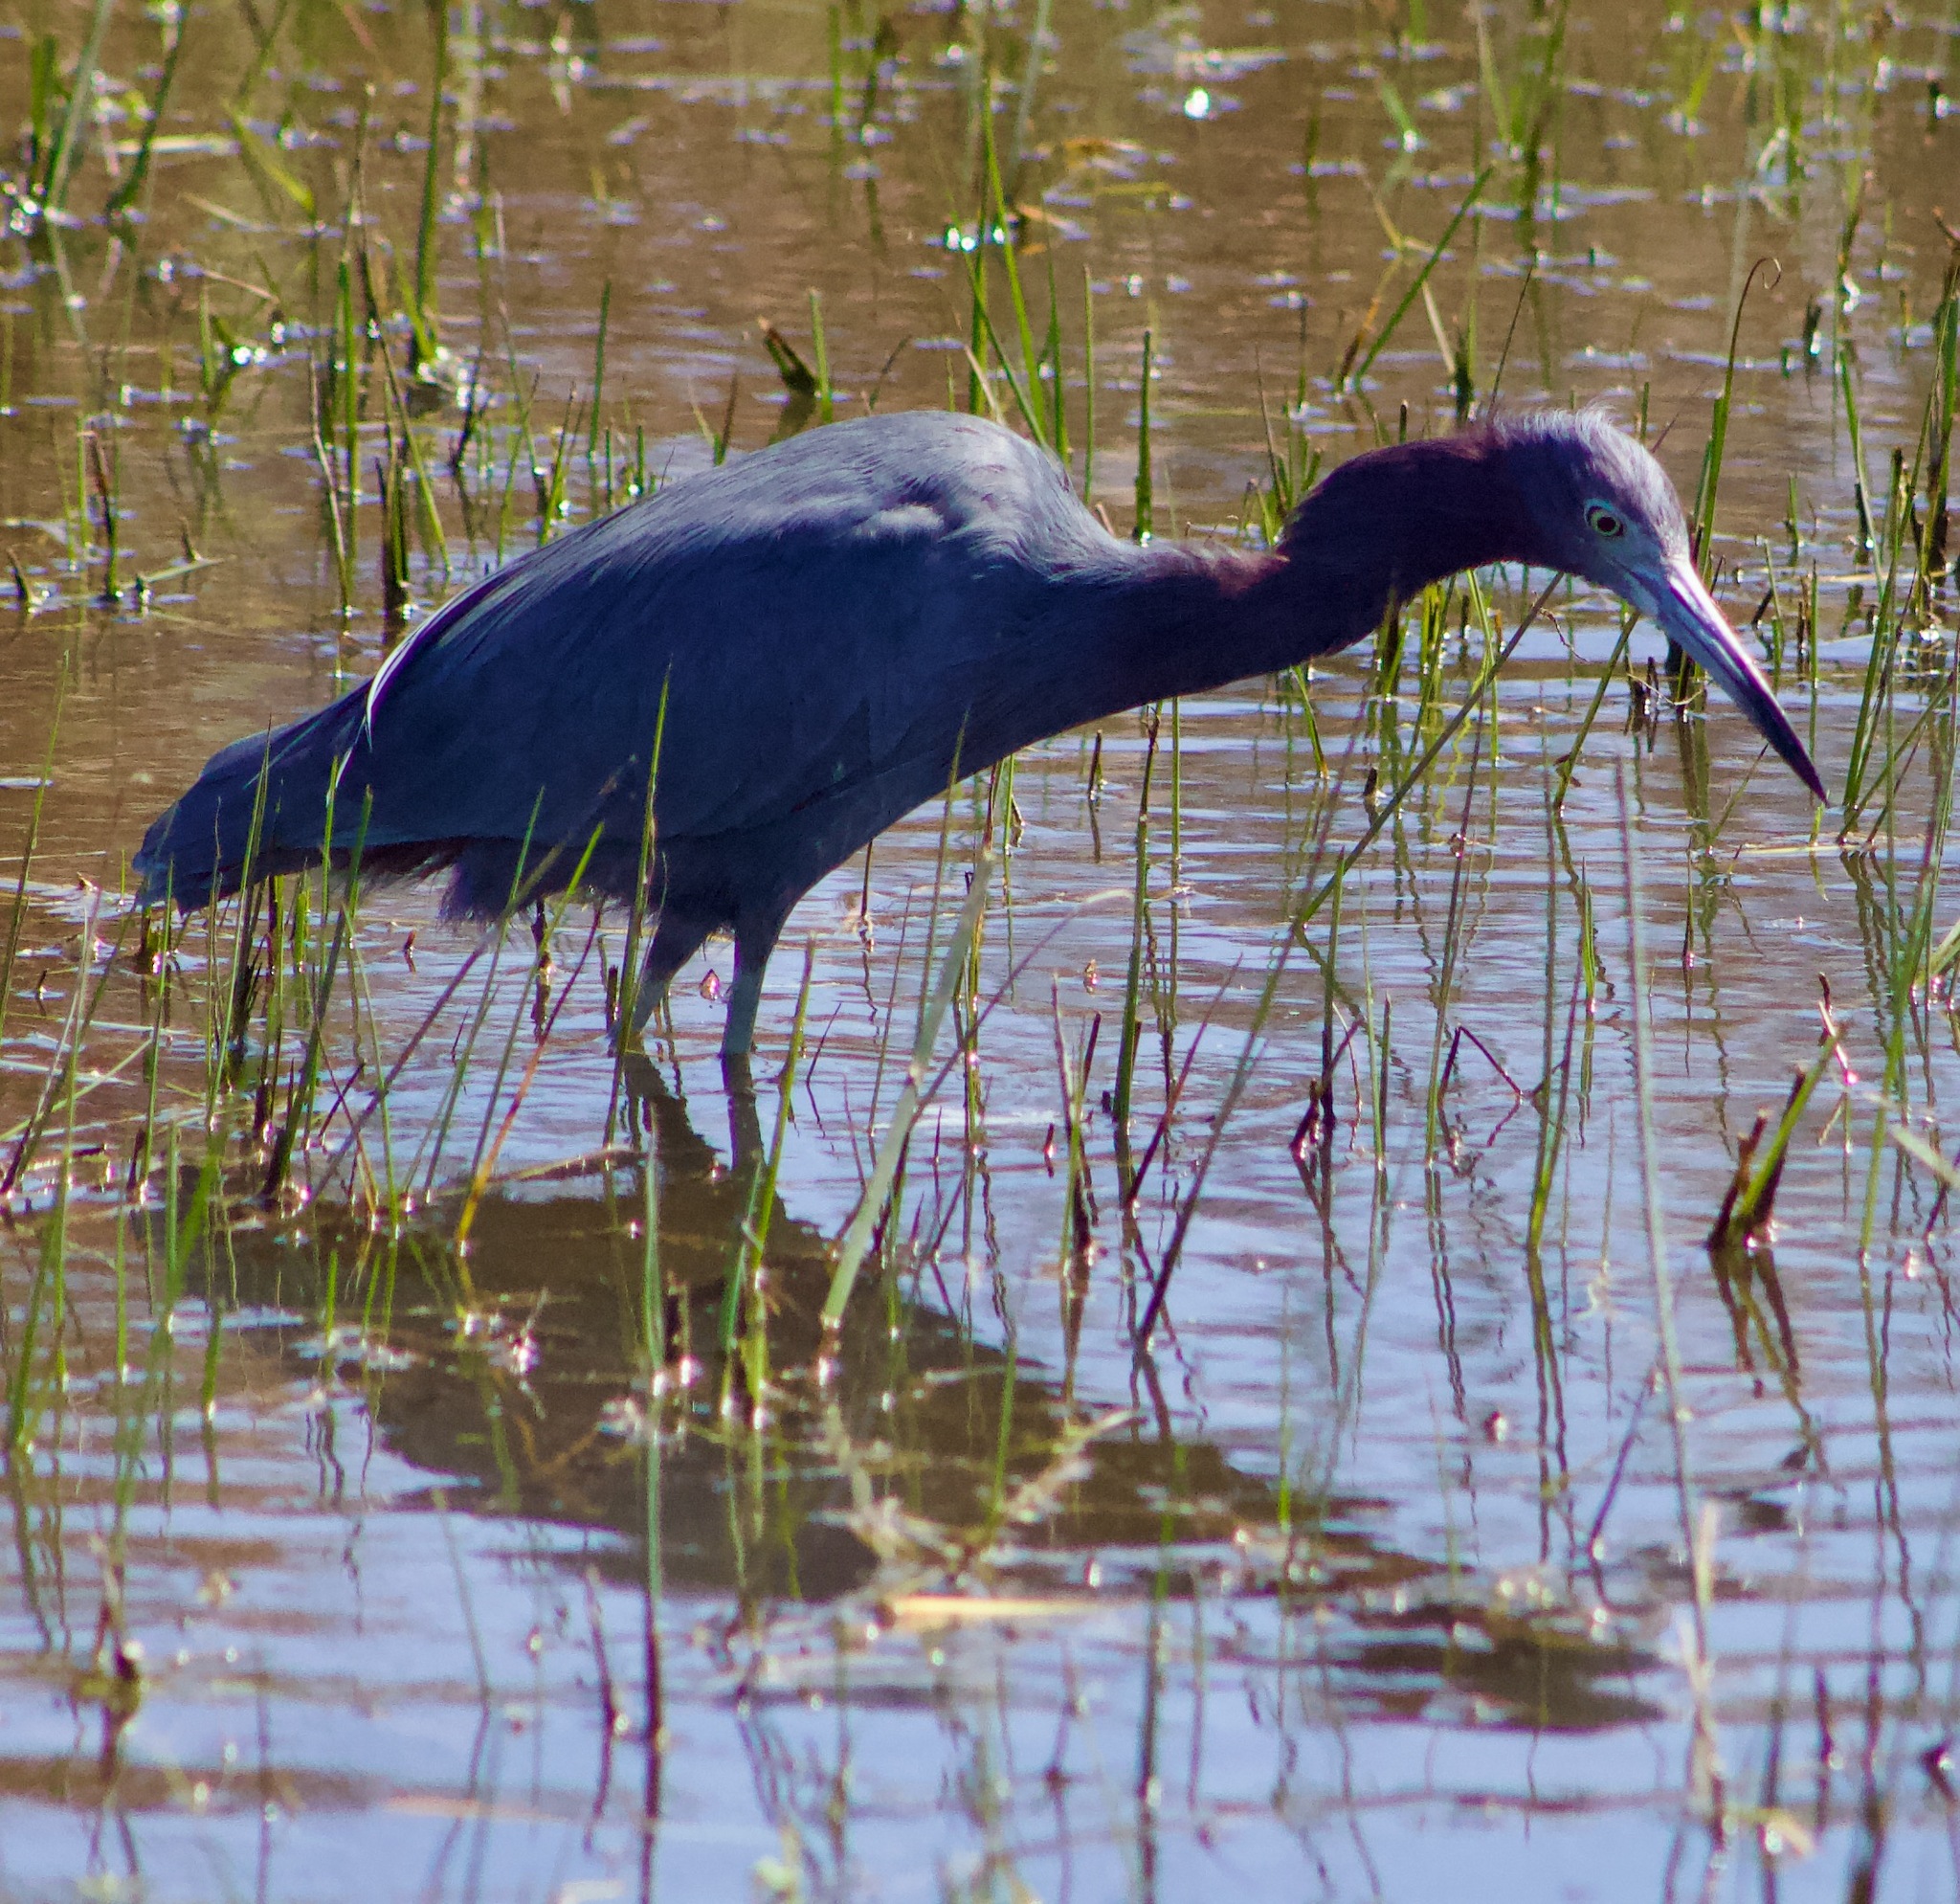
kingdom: Animalia
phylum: Chordata
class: Aves
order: Pelecaniformes
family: Ardeidae
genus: Egretta
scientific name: Egretta caerulea
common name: Little blue heron
